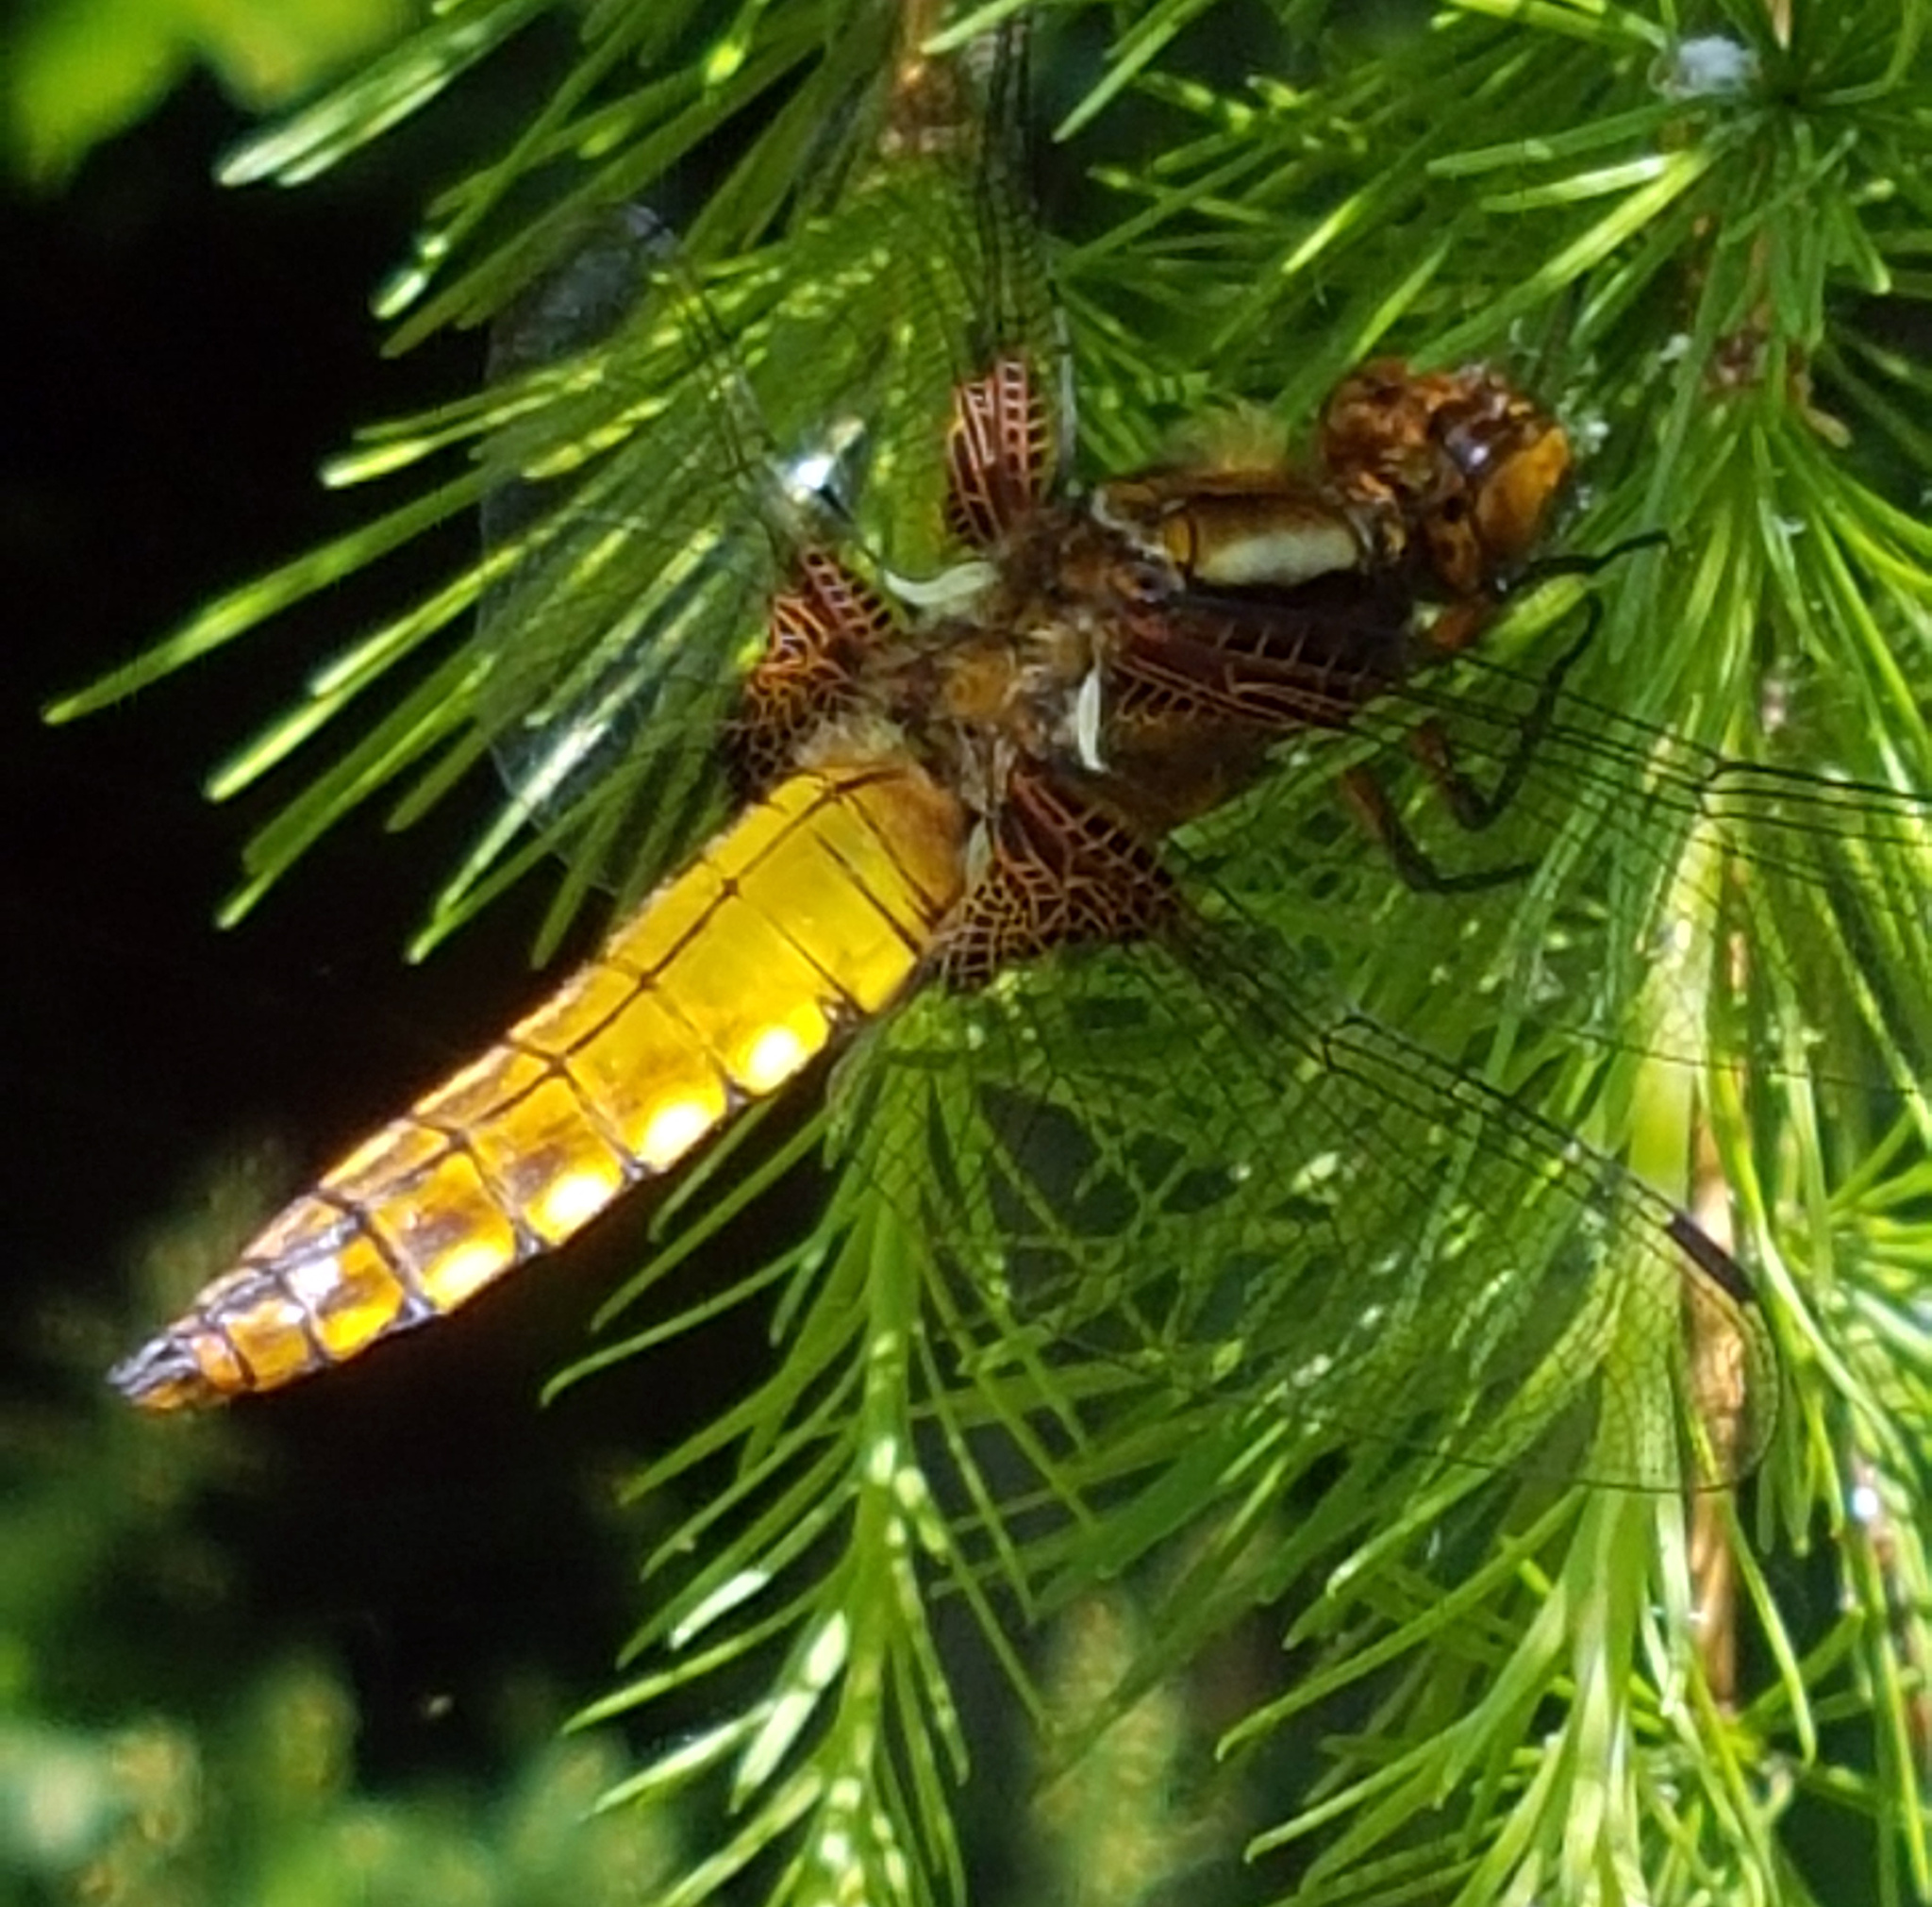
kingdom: Animalia
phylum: Arthropoda
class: Insecta
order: Odonata
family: Libellulidae
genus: Libellula
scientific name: Libellula depressa
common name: Broad-bodied chaser
